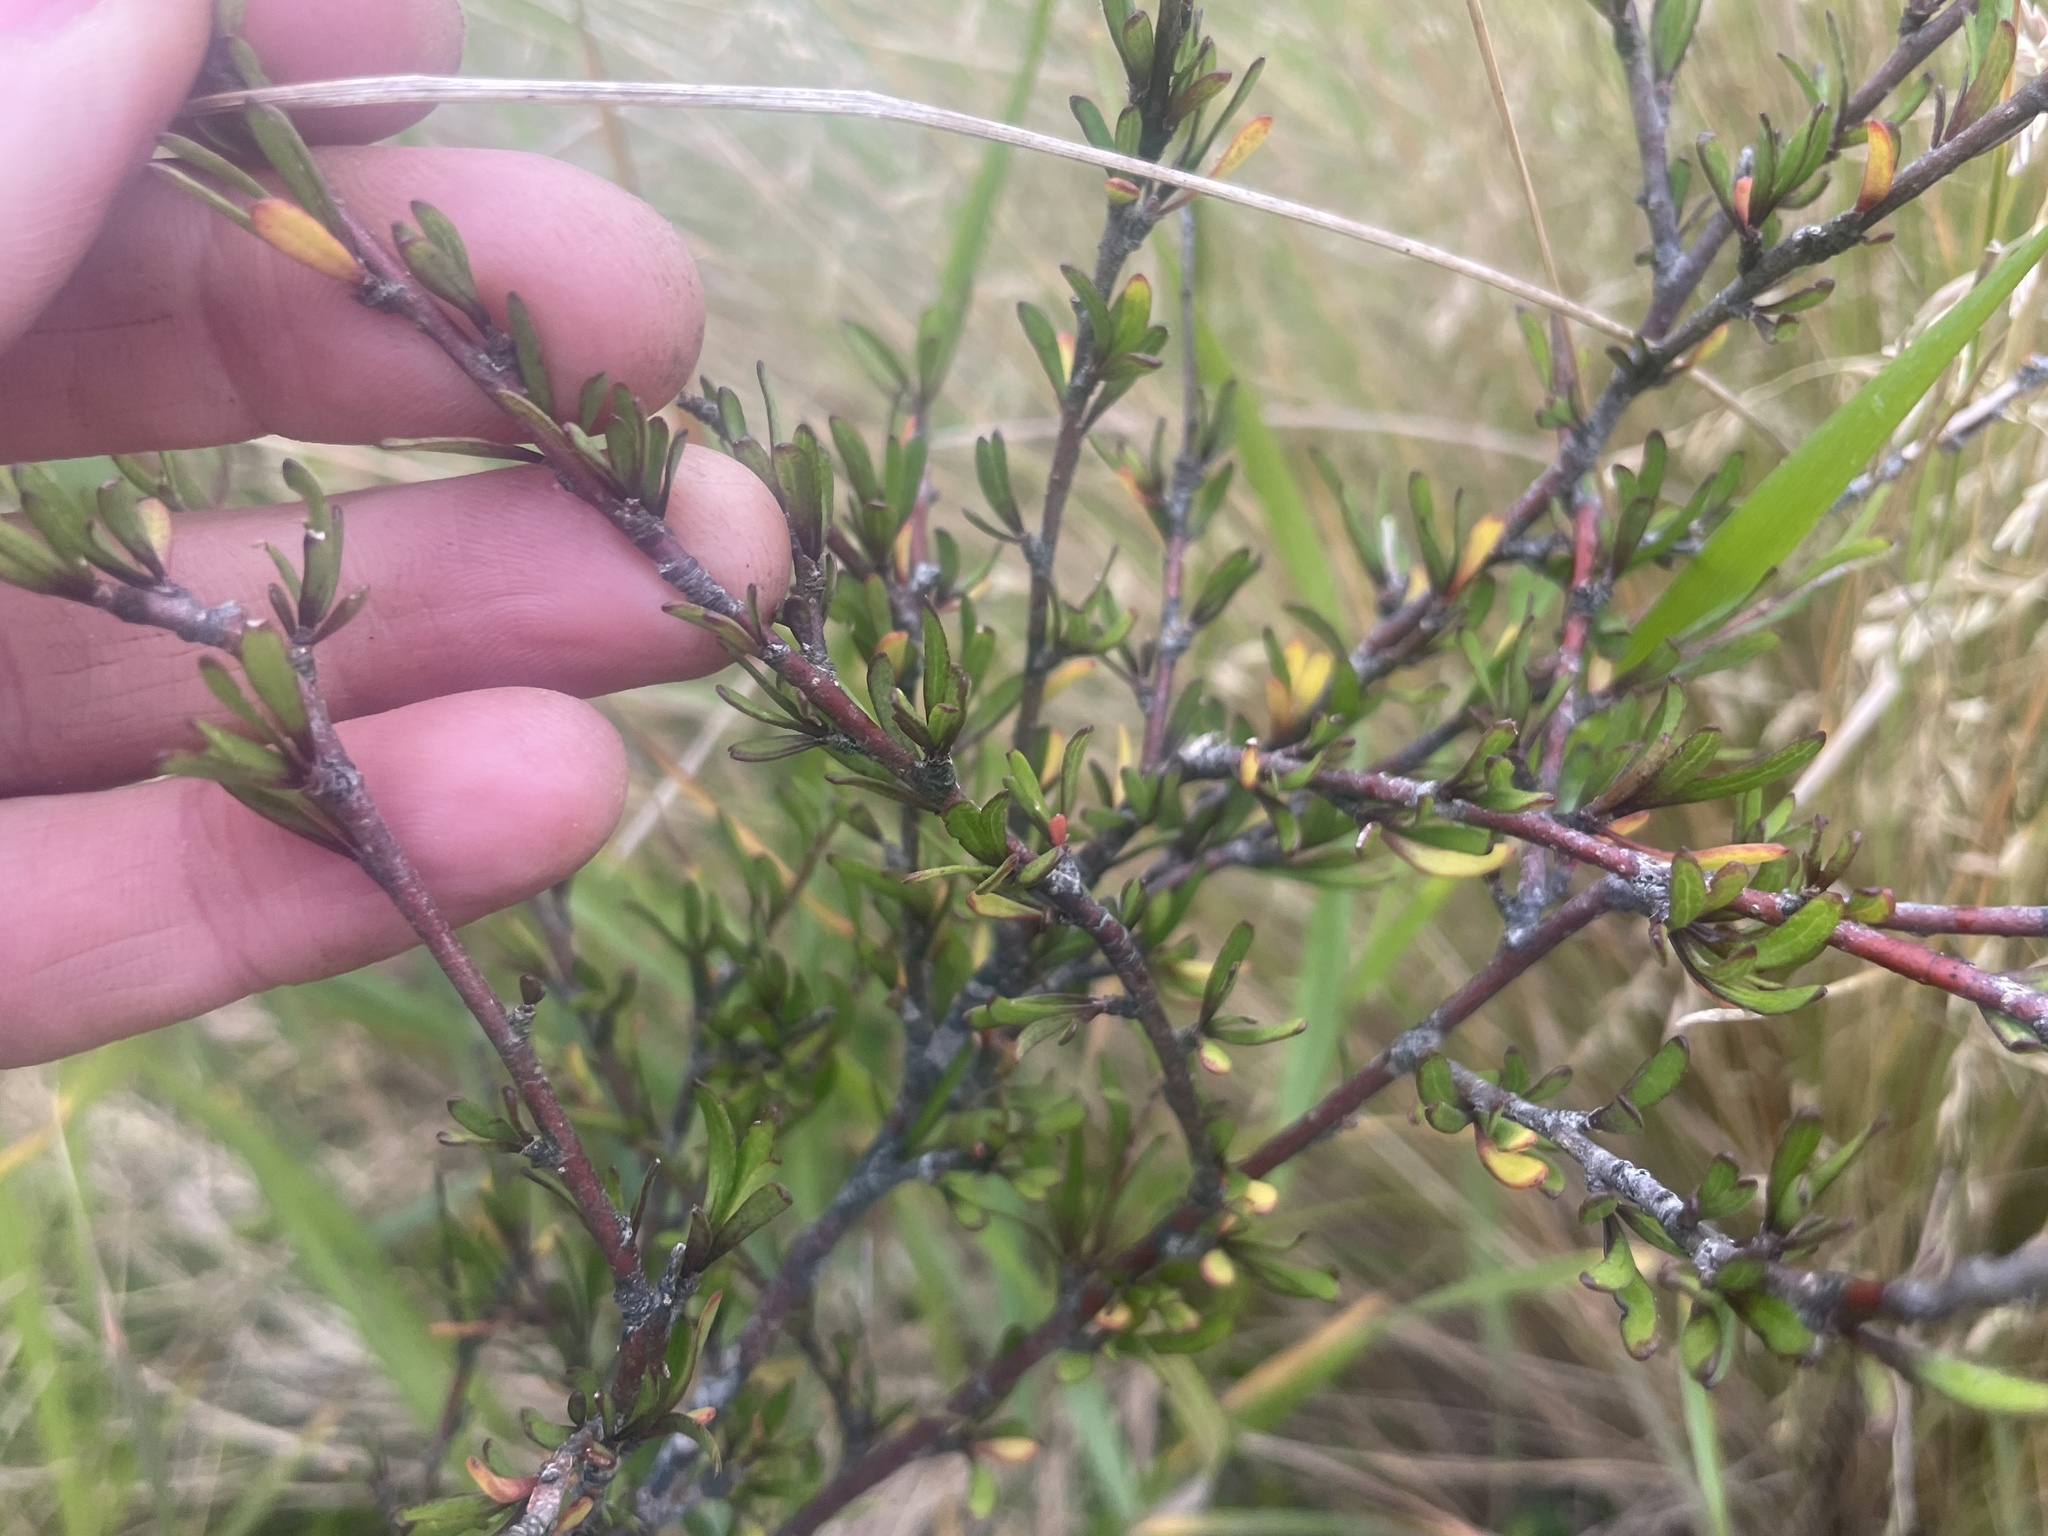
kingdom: Plantae
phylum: Tracheophyta
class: Magnoliopsida
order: Malvales
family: Malvaceae
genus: Plagianthus
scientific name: Plagianthus divaricatus
